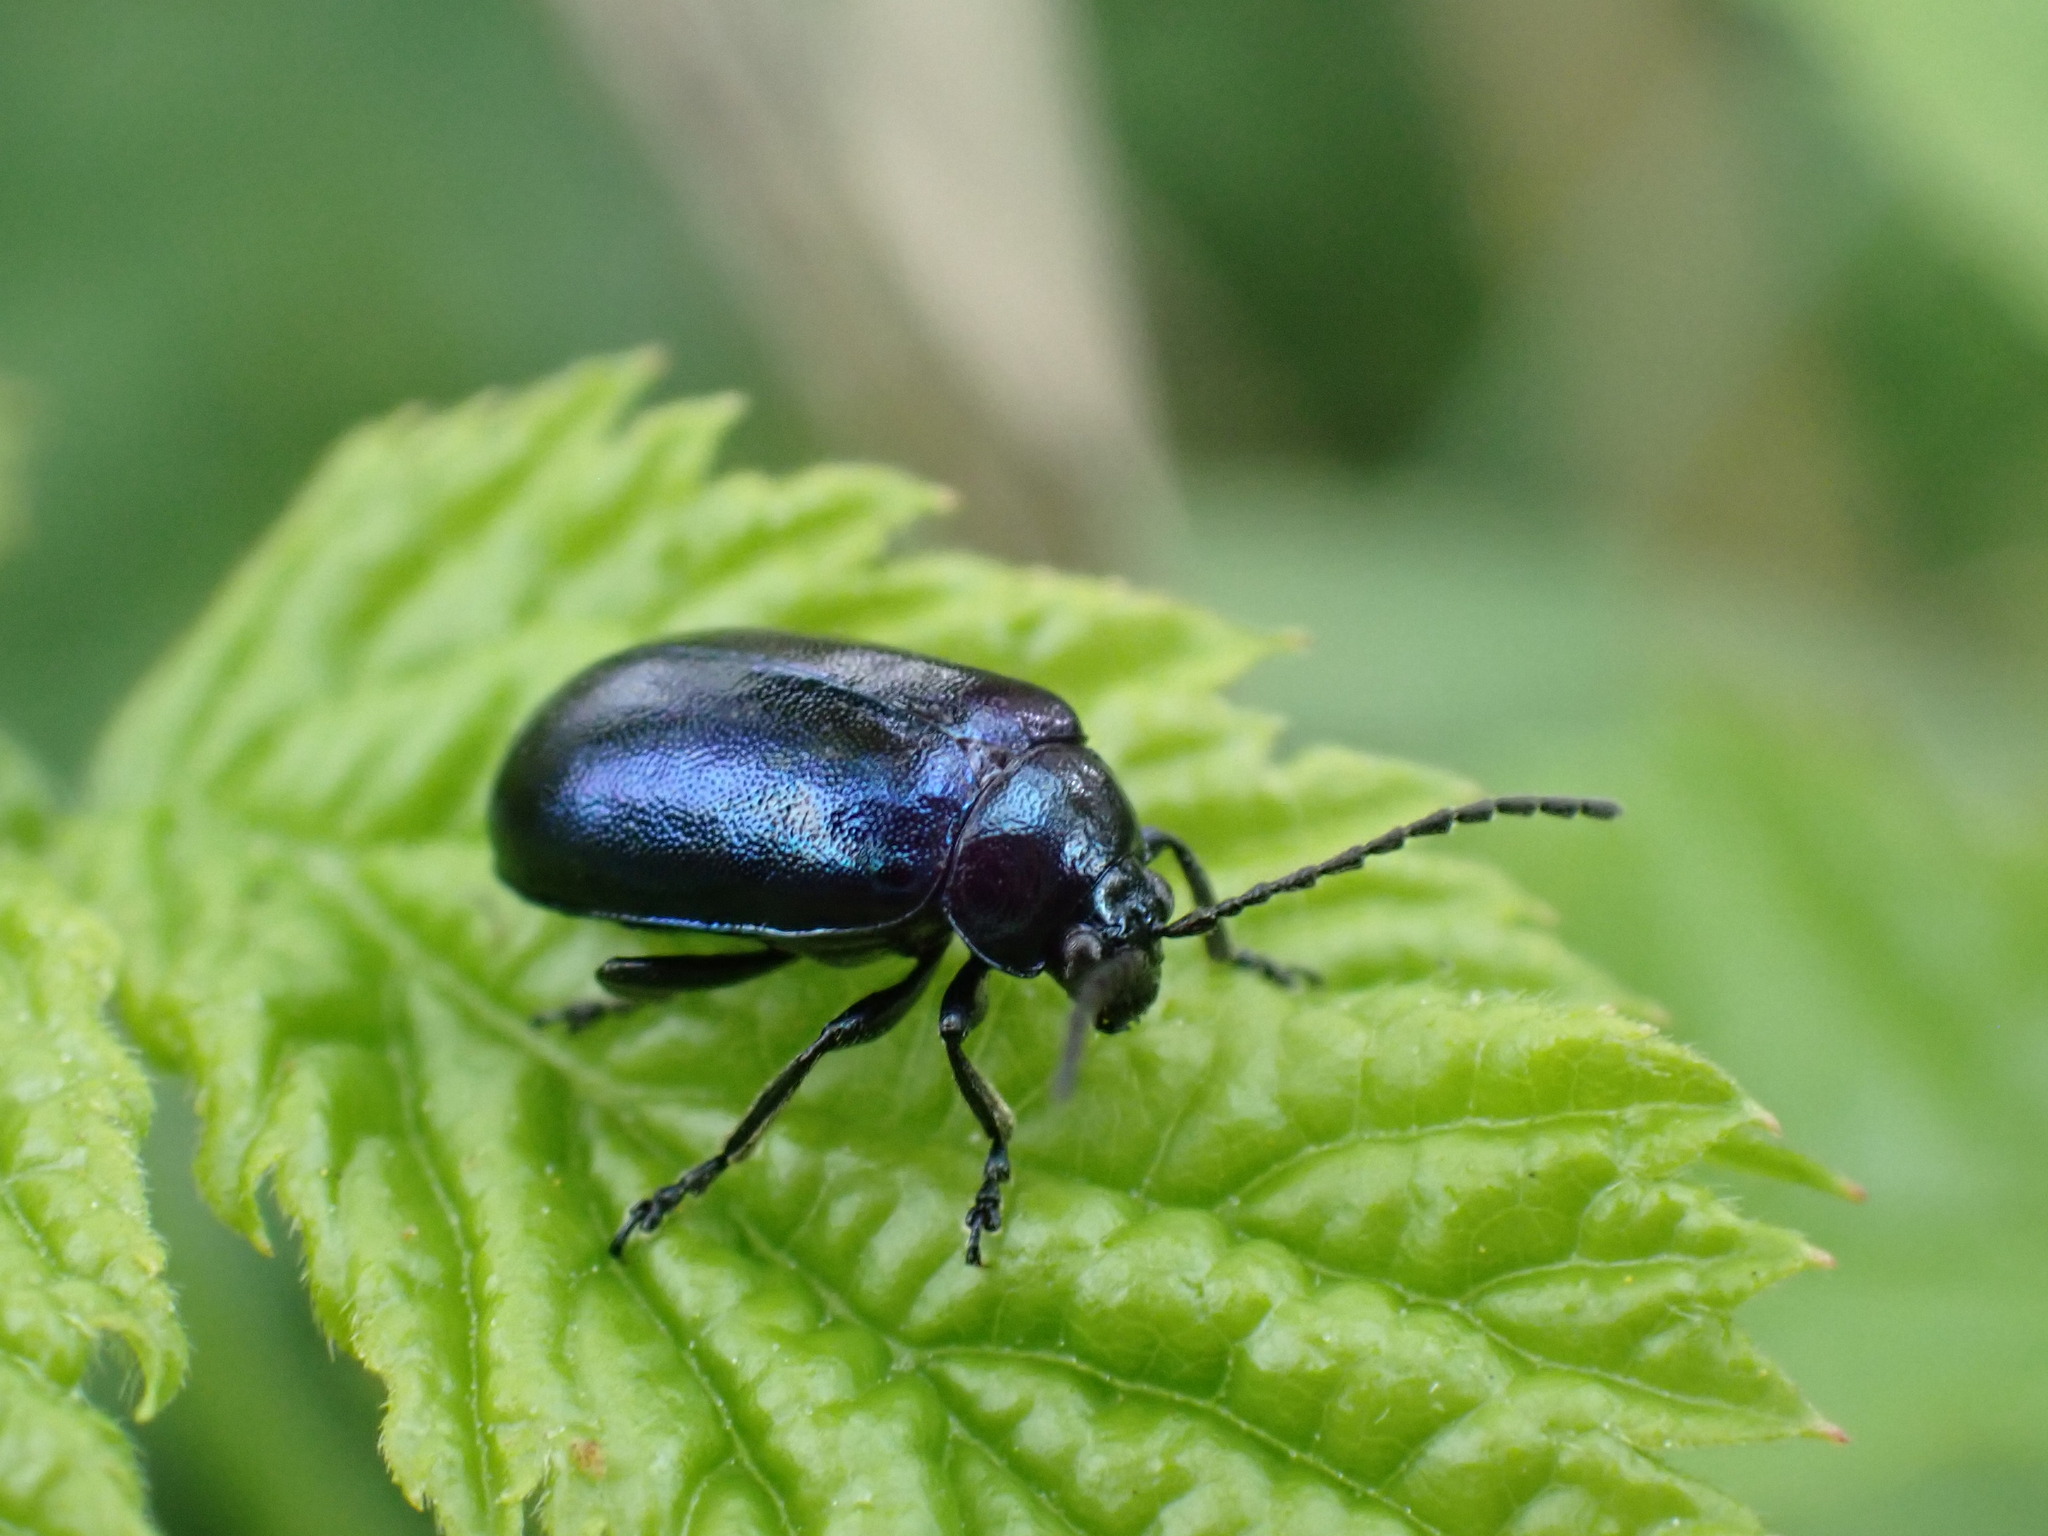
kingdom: Animalia
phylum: Arthropoda
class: Insecta
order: Coleoptera
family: Chrysomelidae
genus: Agelastica
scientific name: Agelastica alni
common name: Alder leaf beetle
